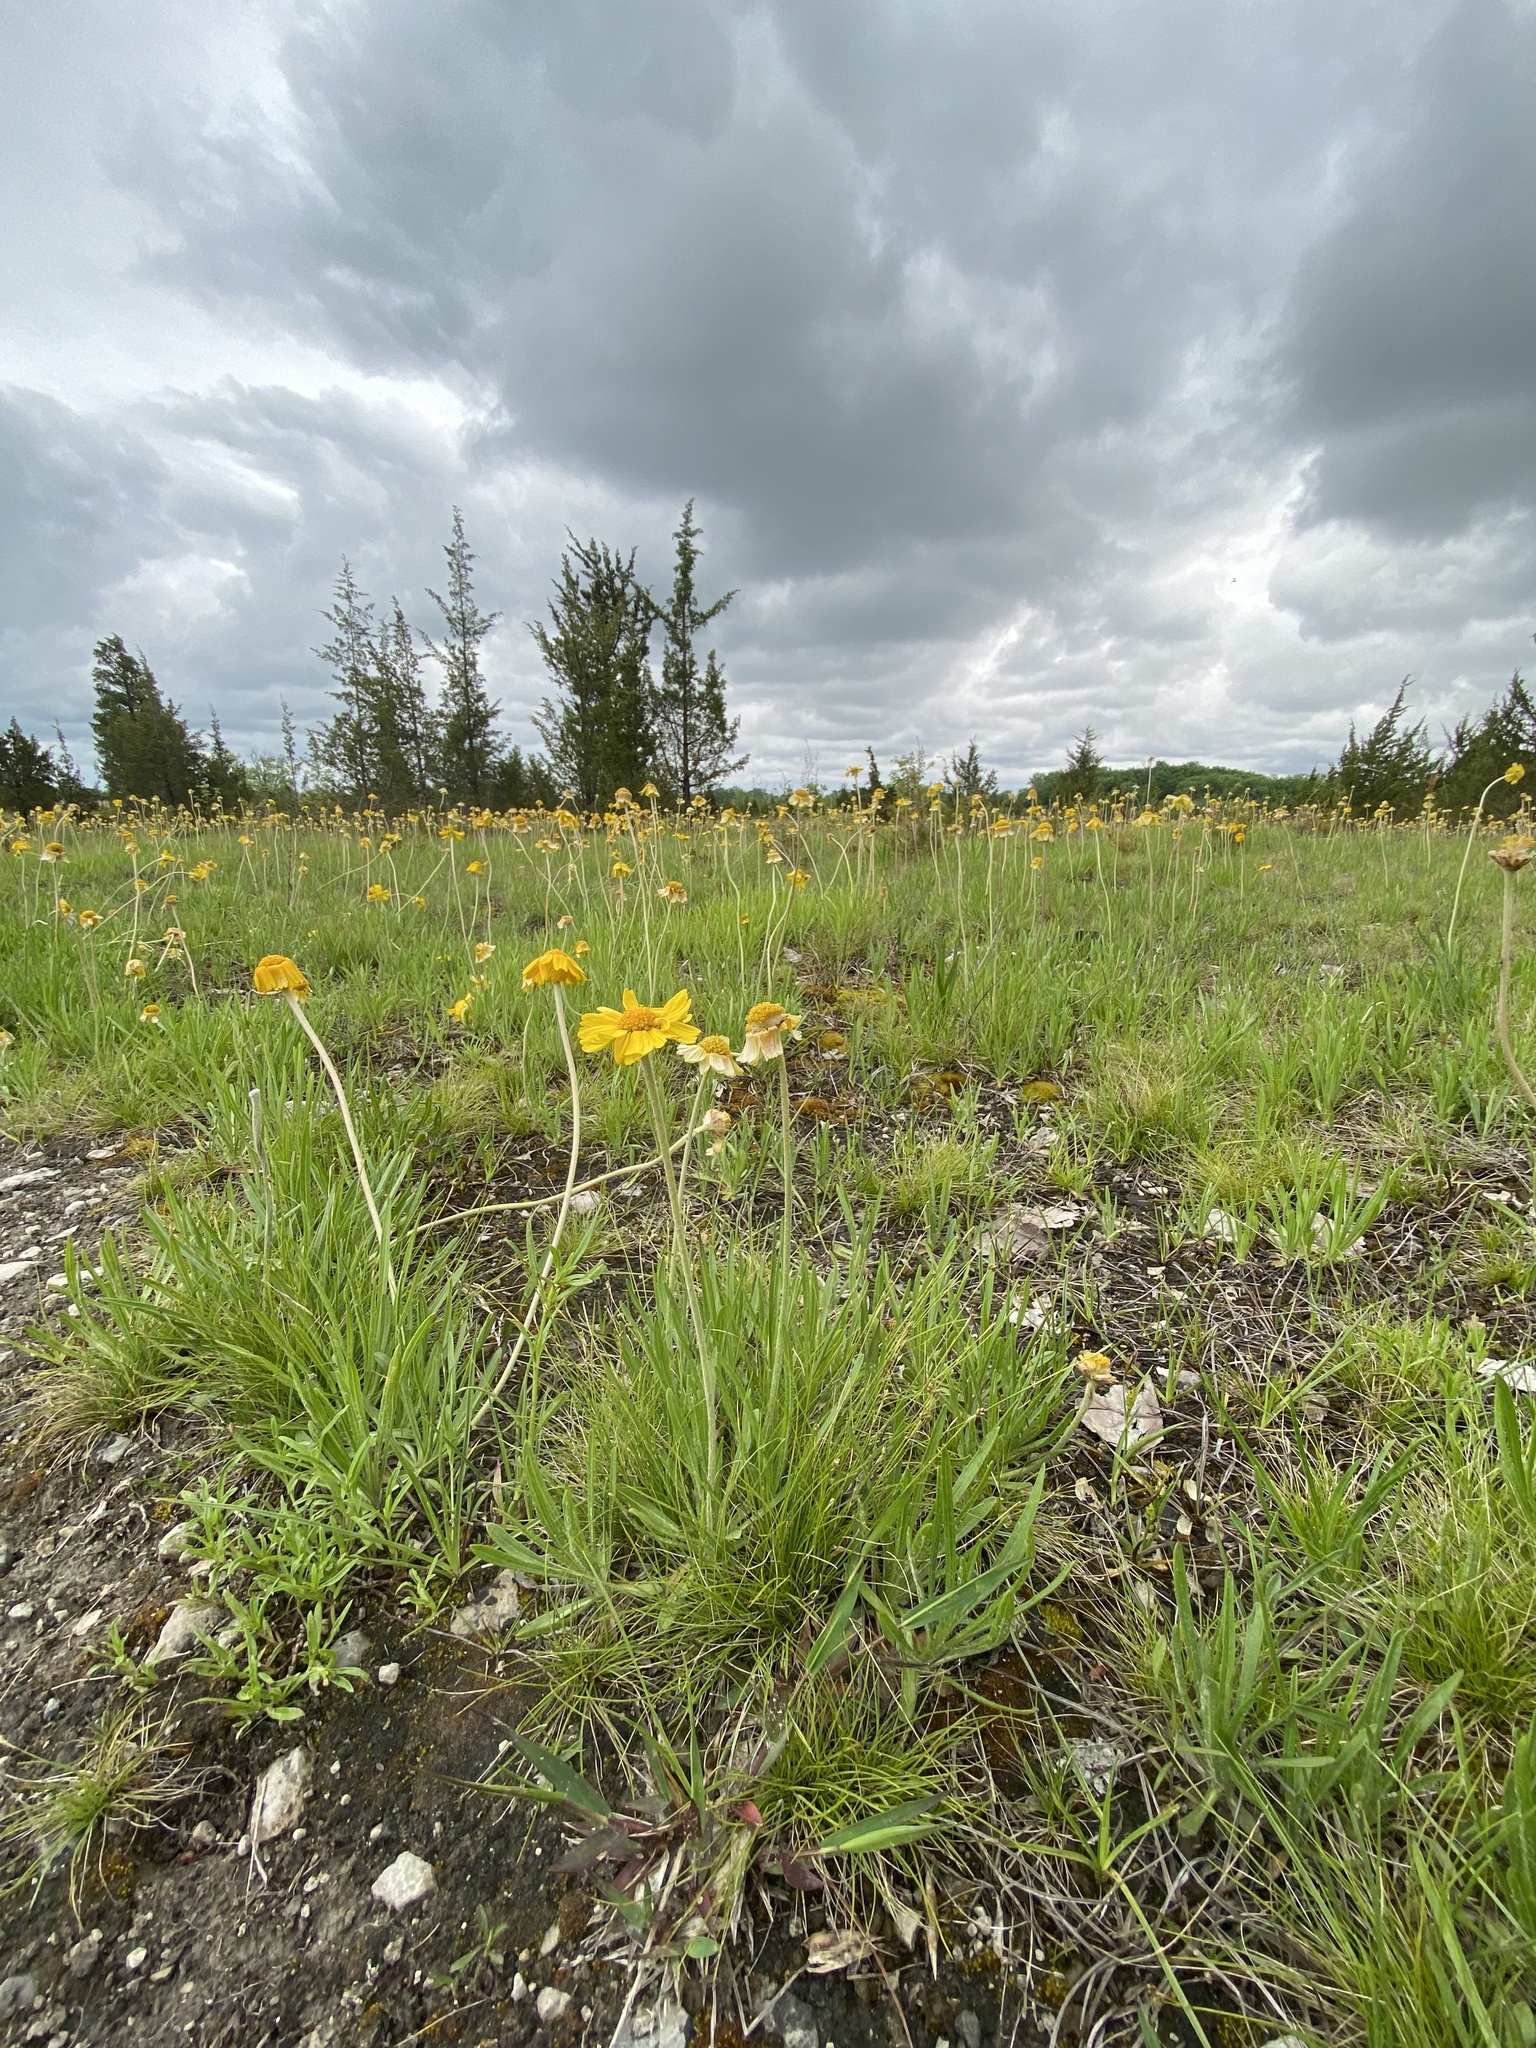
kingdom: Plantae
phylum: Tracheophyta
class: Magnoliopsida
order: Asterales
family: Asteraceae
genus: Tetraneuris
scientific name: Tetraneuris herbacea
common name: Lakeside daisy
